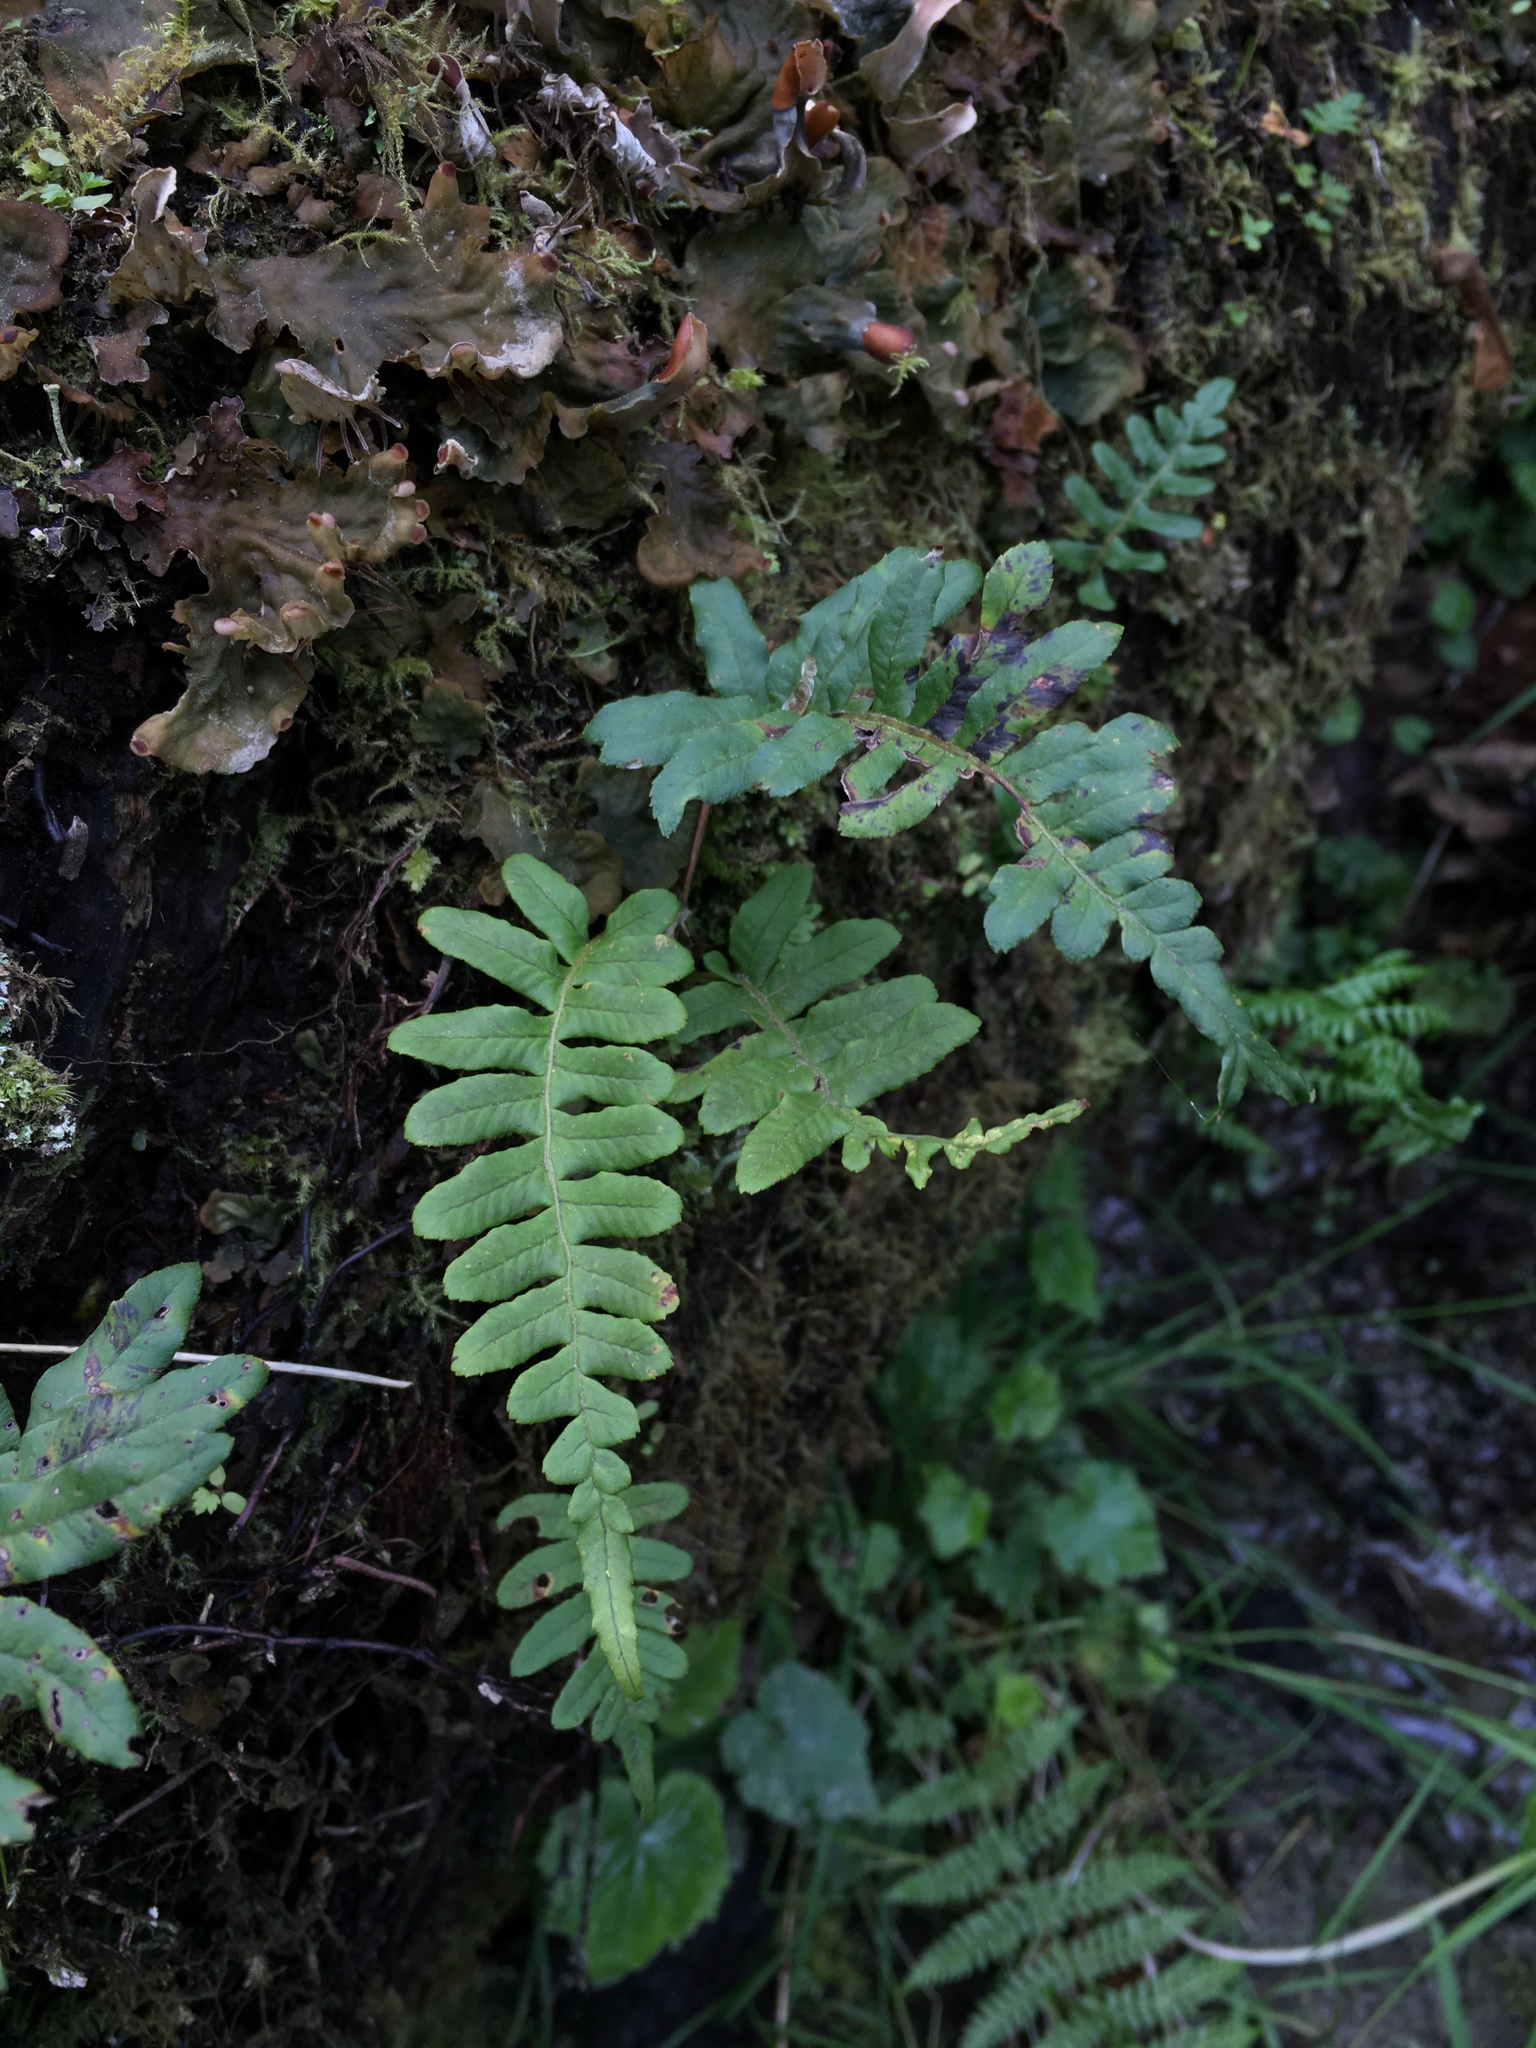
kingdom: Plantae
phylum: Tracheophyta
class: Polypodiopsida
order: Polypodiales
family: Polypodiaceae
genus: Polypodium
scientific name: Polypodium glycyrrhiza
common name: Licorice fern
